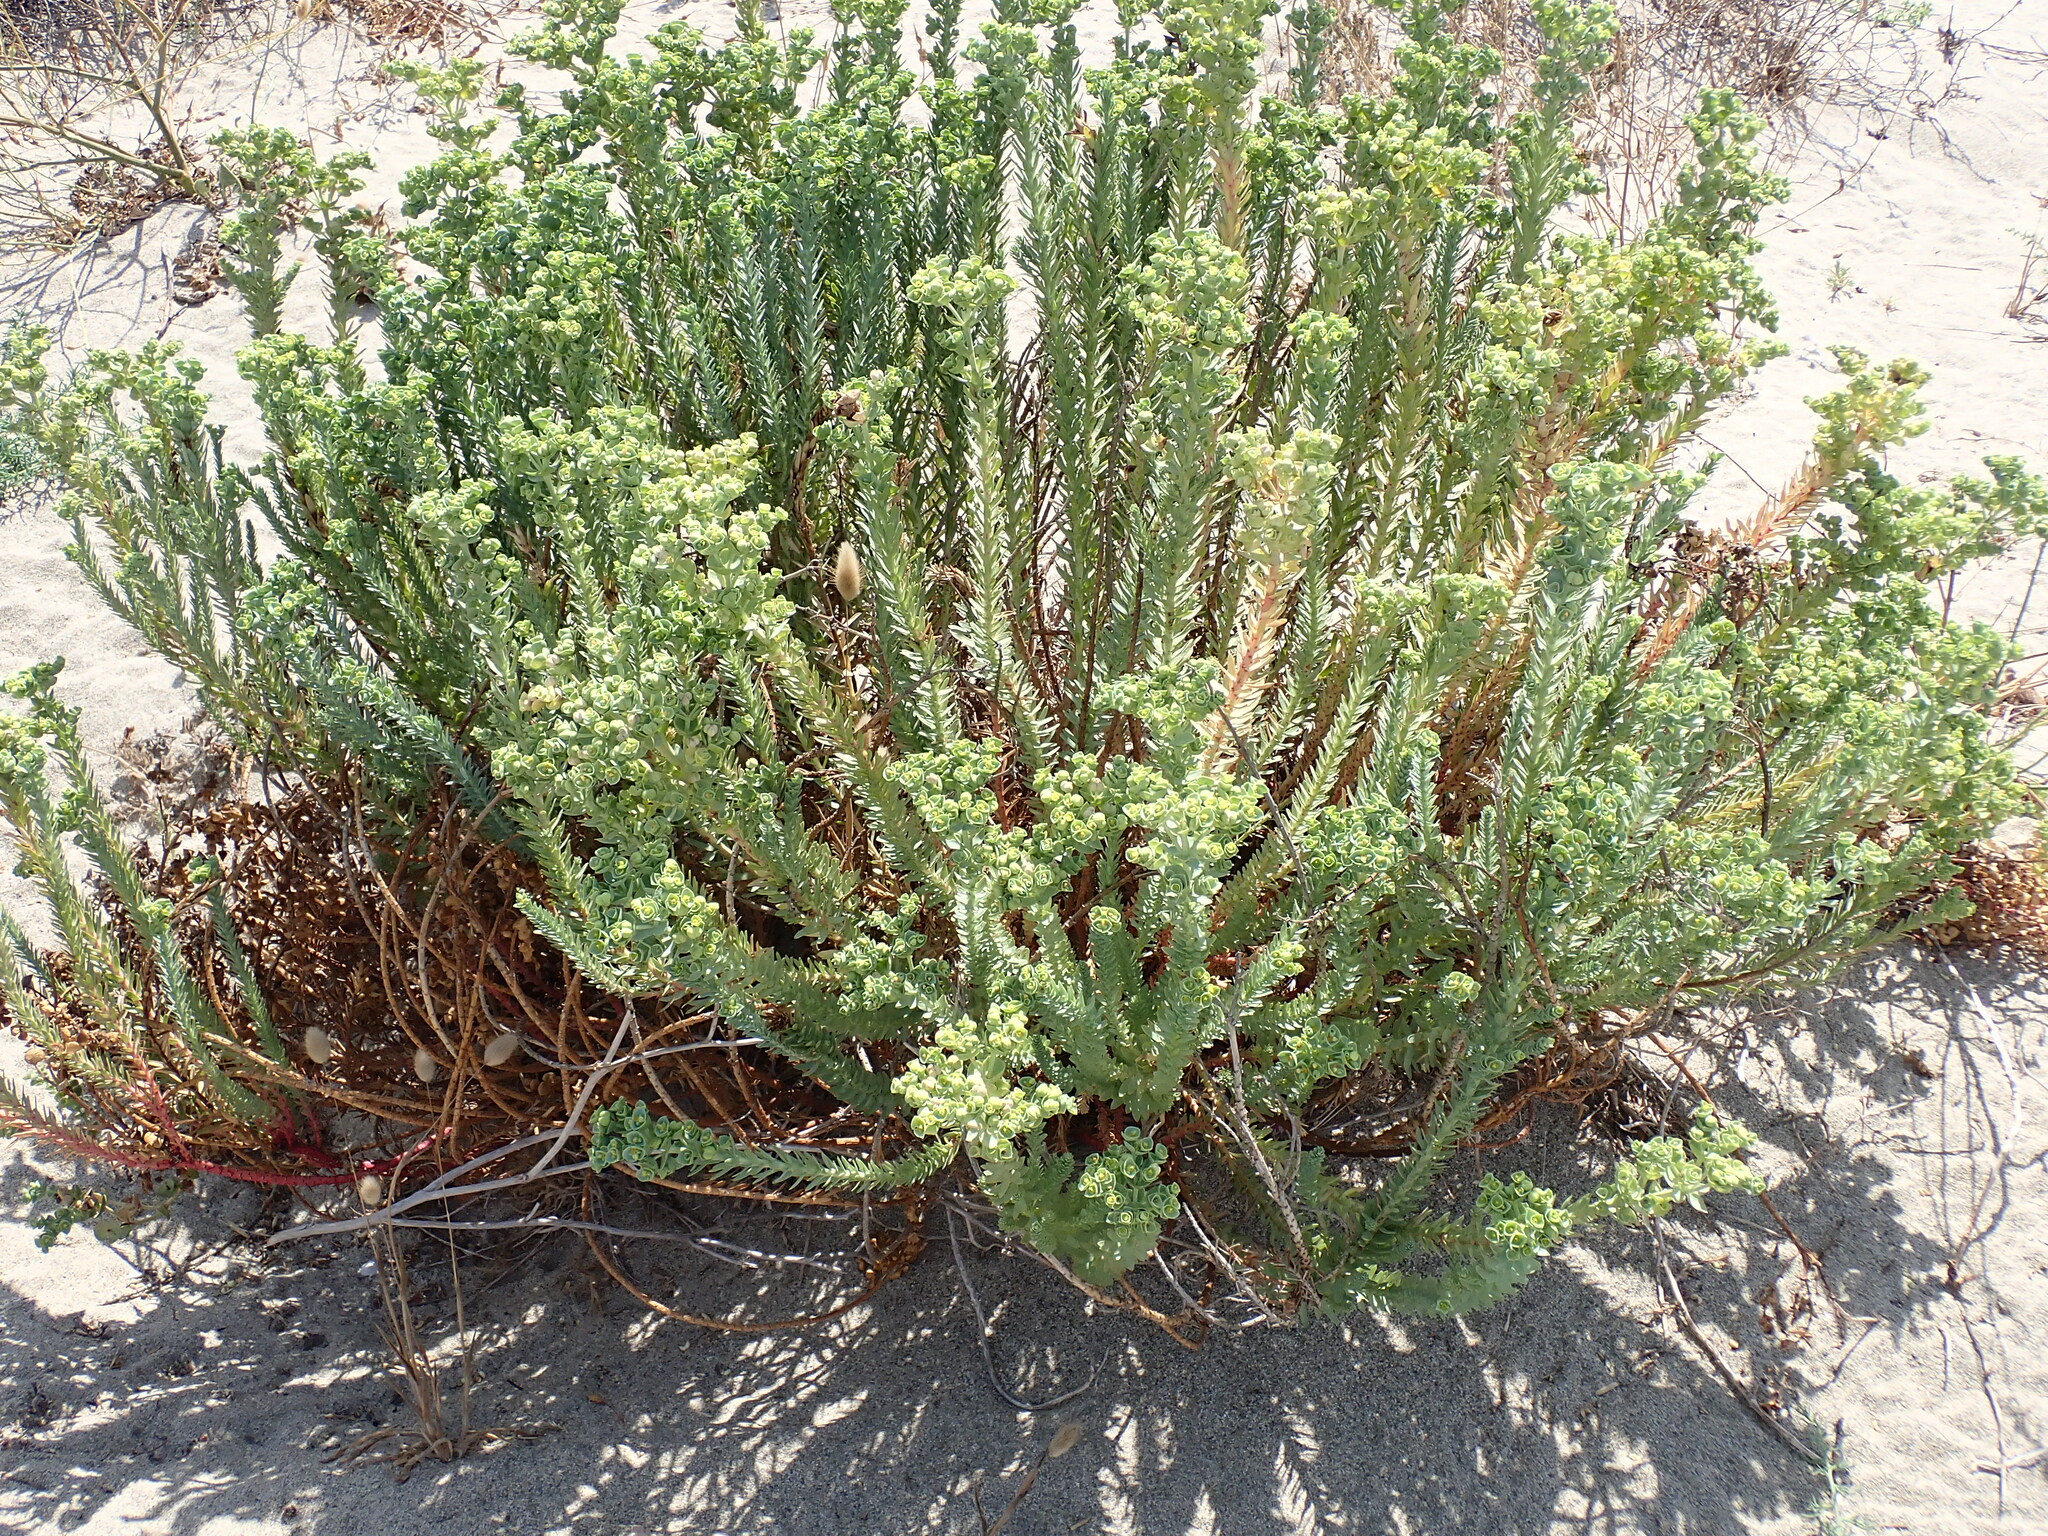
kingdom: Plantae
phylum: Tracheophyta
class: Magnoliopsida
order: Malpighiales
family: Euphorbiaceae
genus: Euphorbia
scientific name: Euphorbia paralias
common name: Sea spurge
